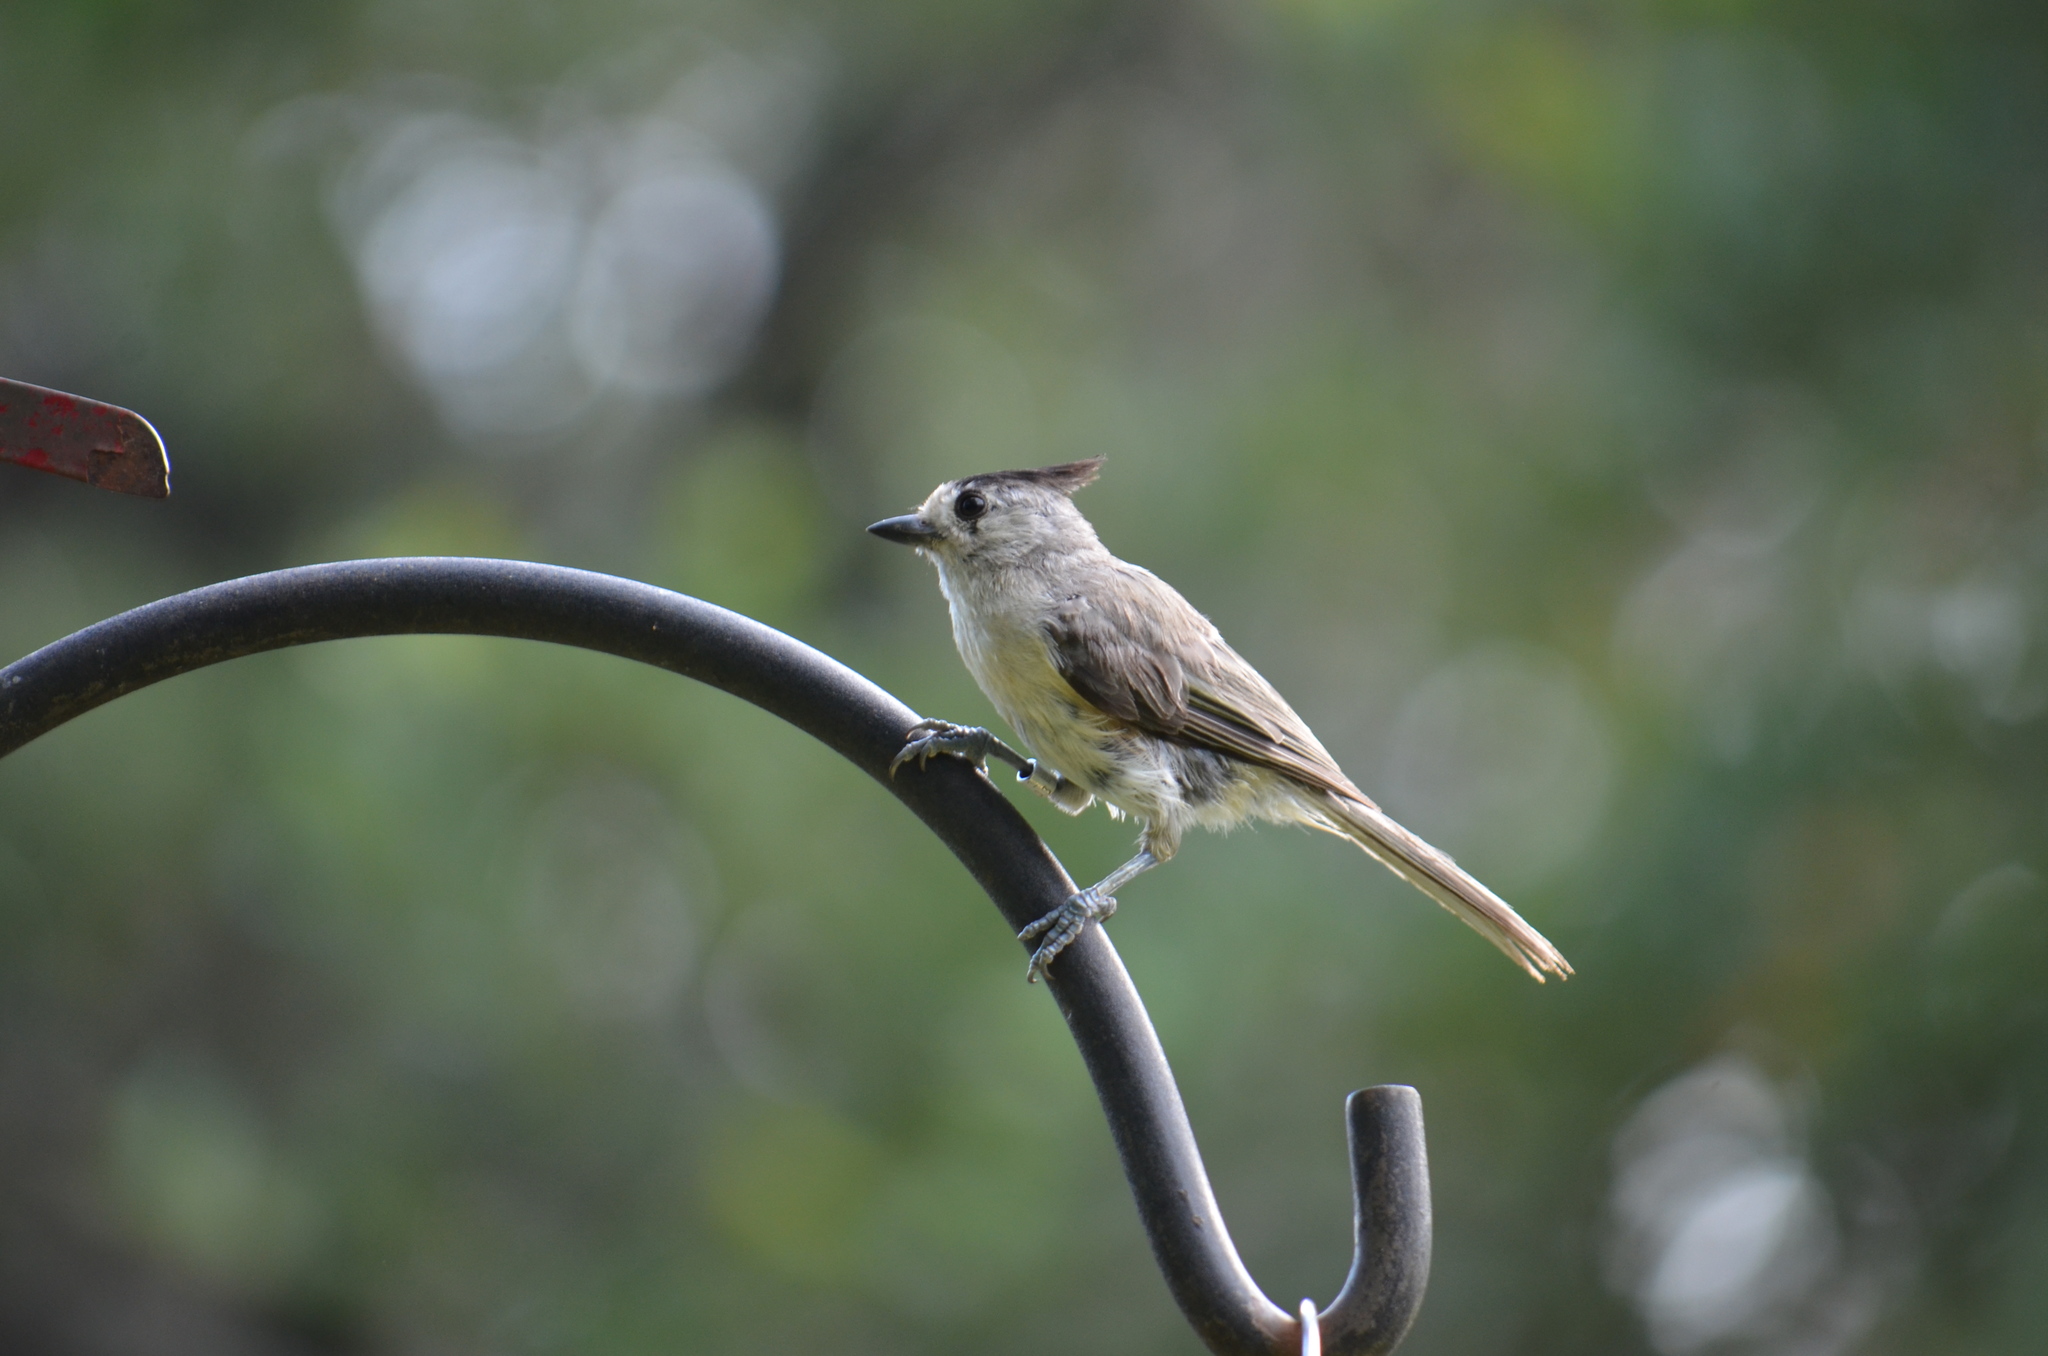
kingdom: Animalia
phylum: Chordata
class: Aves
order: Passeriformes
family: Paridae
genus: Baeolophus
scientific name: Baeolophus atricristatus
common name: Black-crested titmouse
